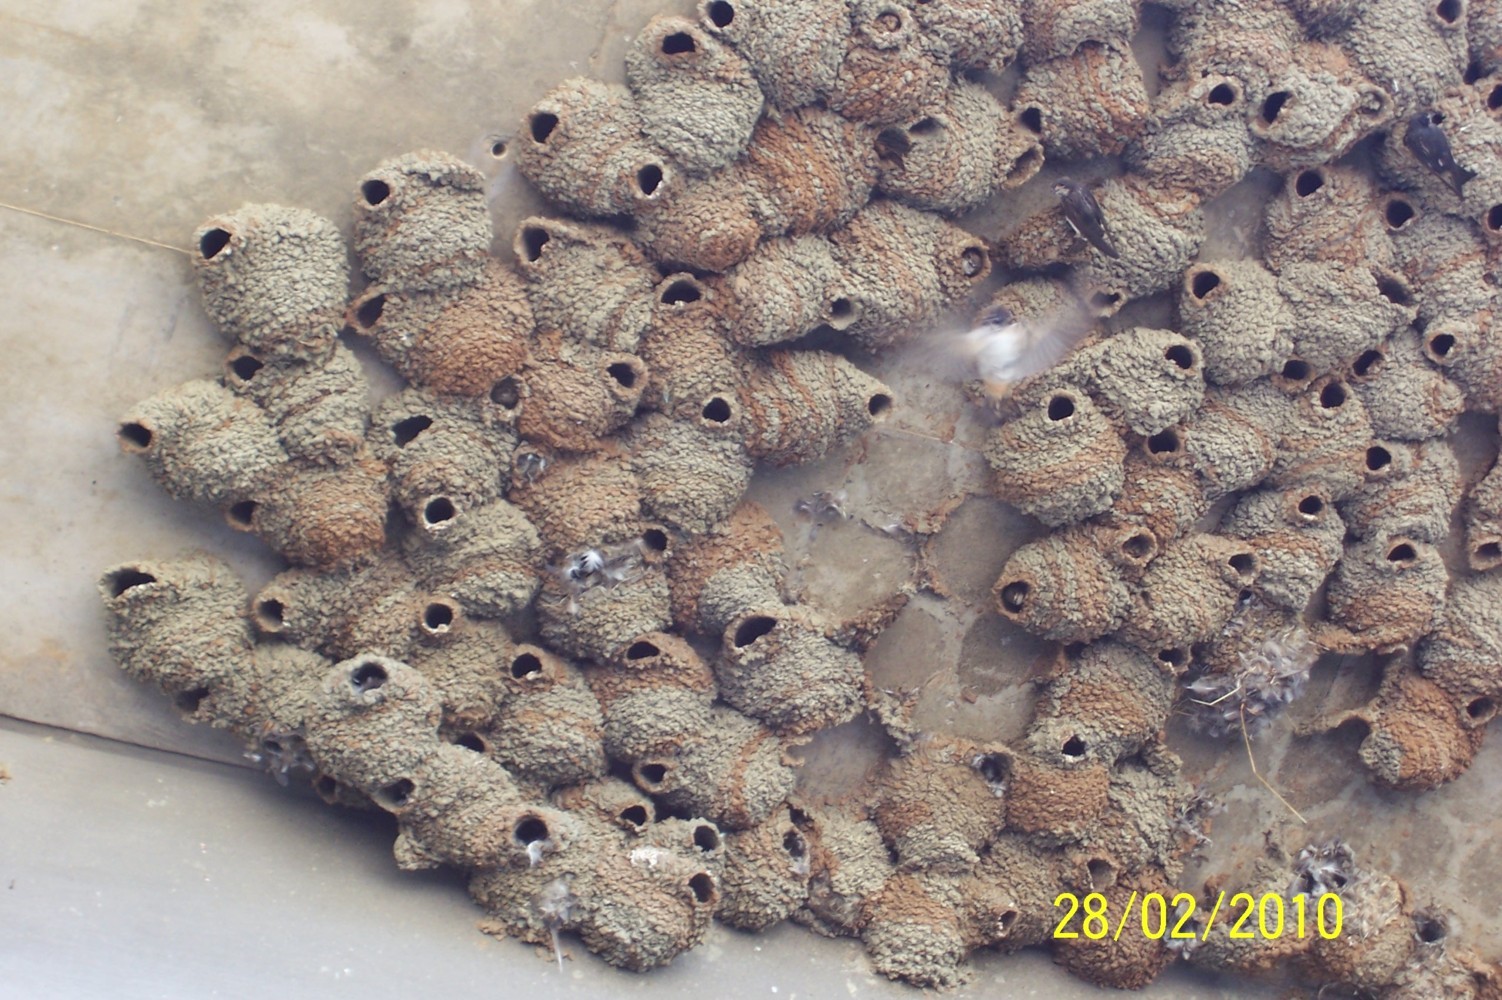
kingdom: Animalia
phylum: Chordata
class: Aves
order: Passeriformes
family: Hirundinidae
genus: Petrochelidon
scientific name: Petrochelidon spilodera
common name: South african swallow
